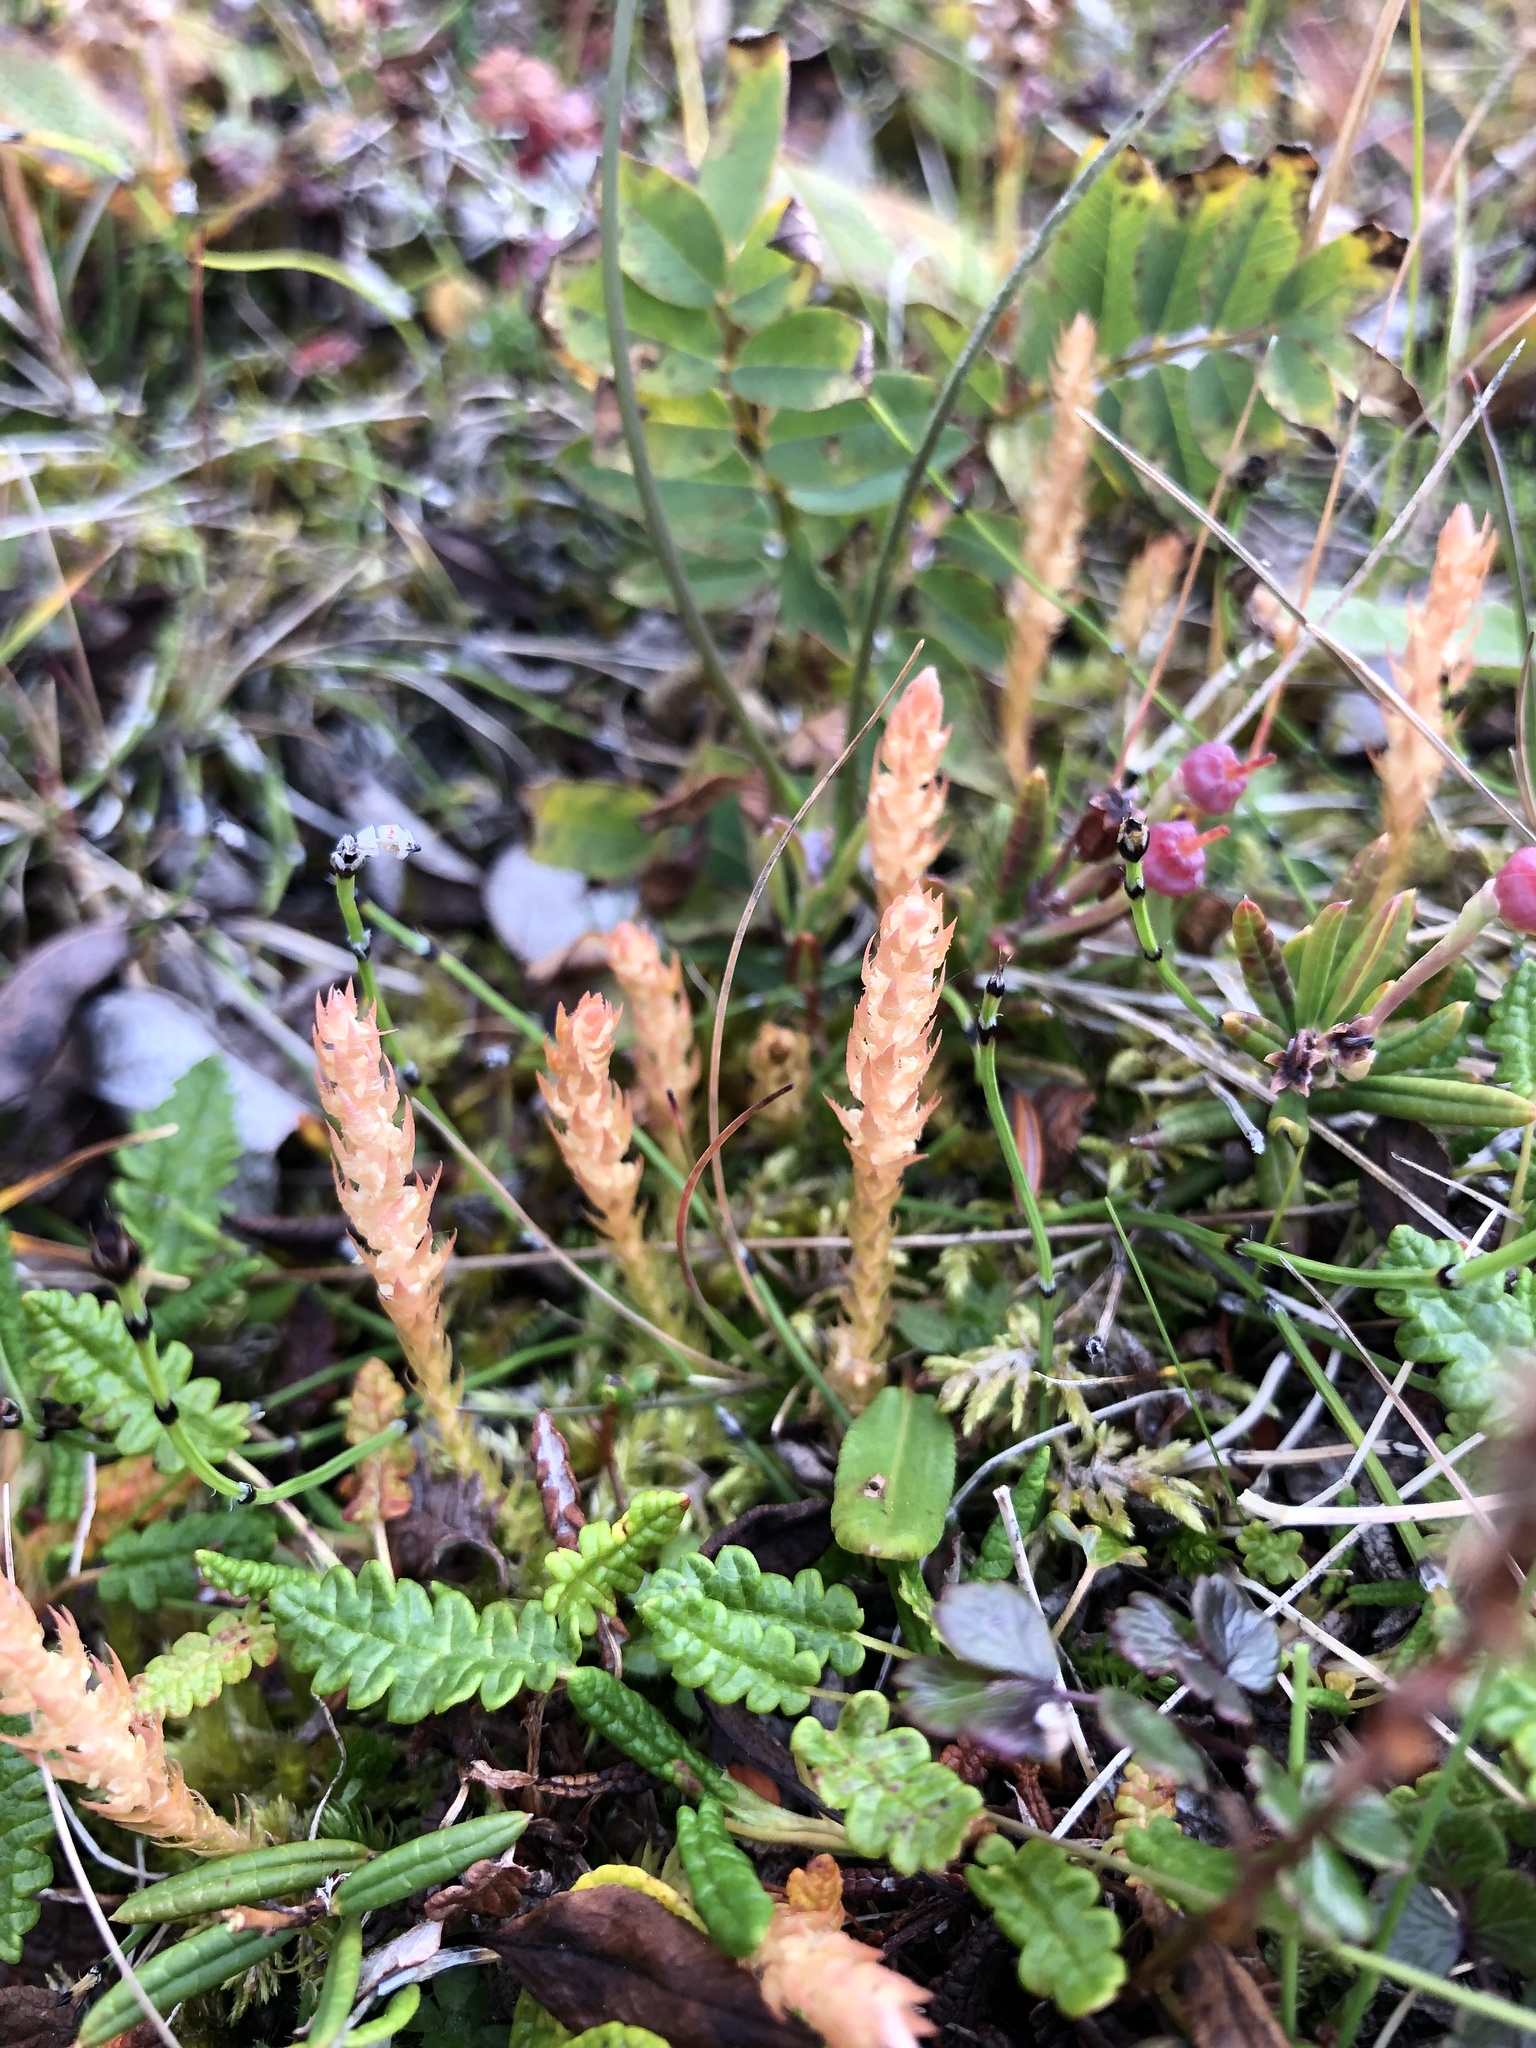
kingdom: Plantae
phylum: Tracheophyta
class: Lycopodiopsida
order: Selaginellales
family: Selaginellaceae
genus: Selaginella
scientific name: Selaginella selaginoides
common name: Prickly mountain-moss
